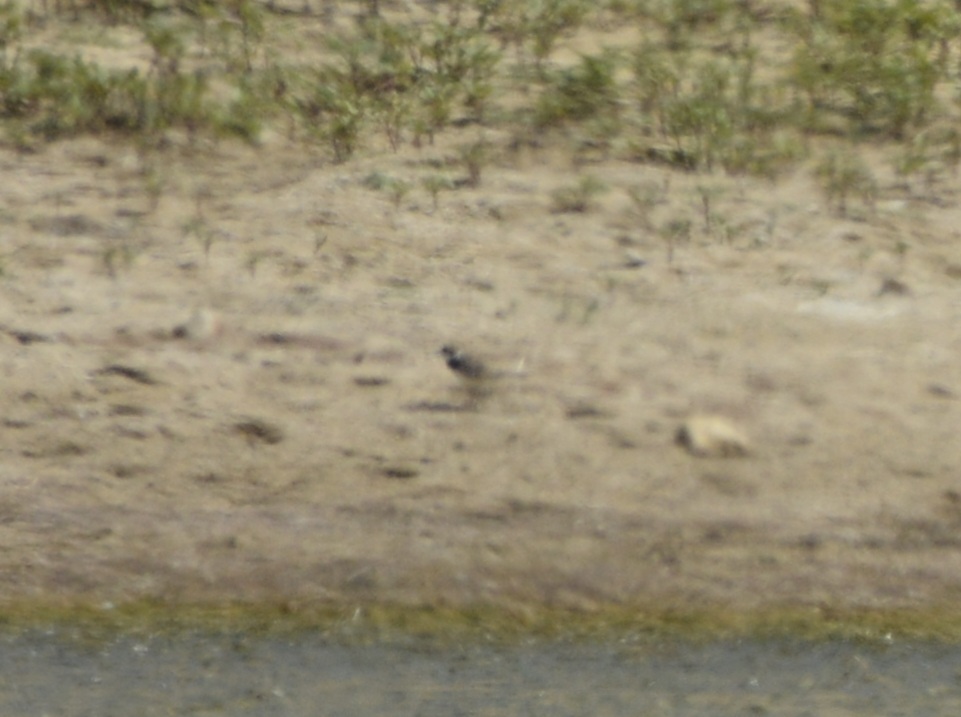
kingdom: Animalia
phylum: Chordata
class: Aves
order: Charadriiformes
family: Charadriidae
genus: Charadrius
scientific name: Charadrius dubius
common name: Little ringed plover
